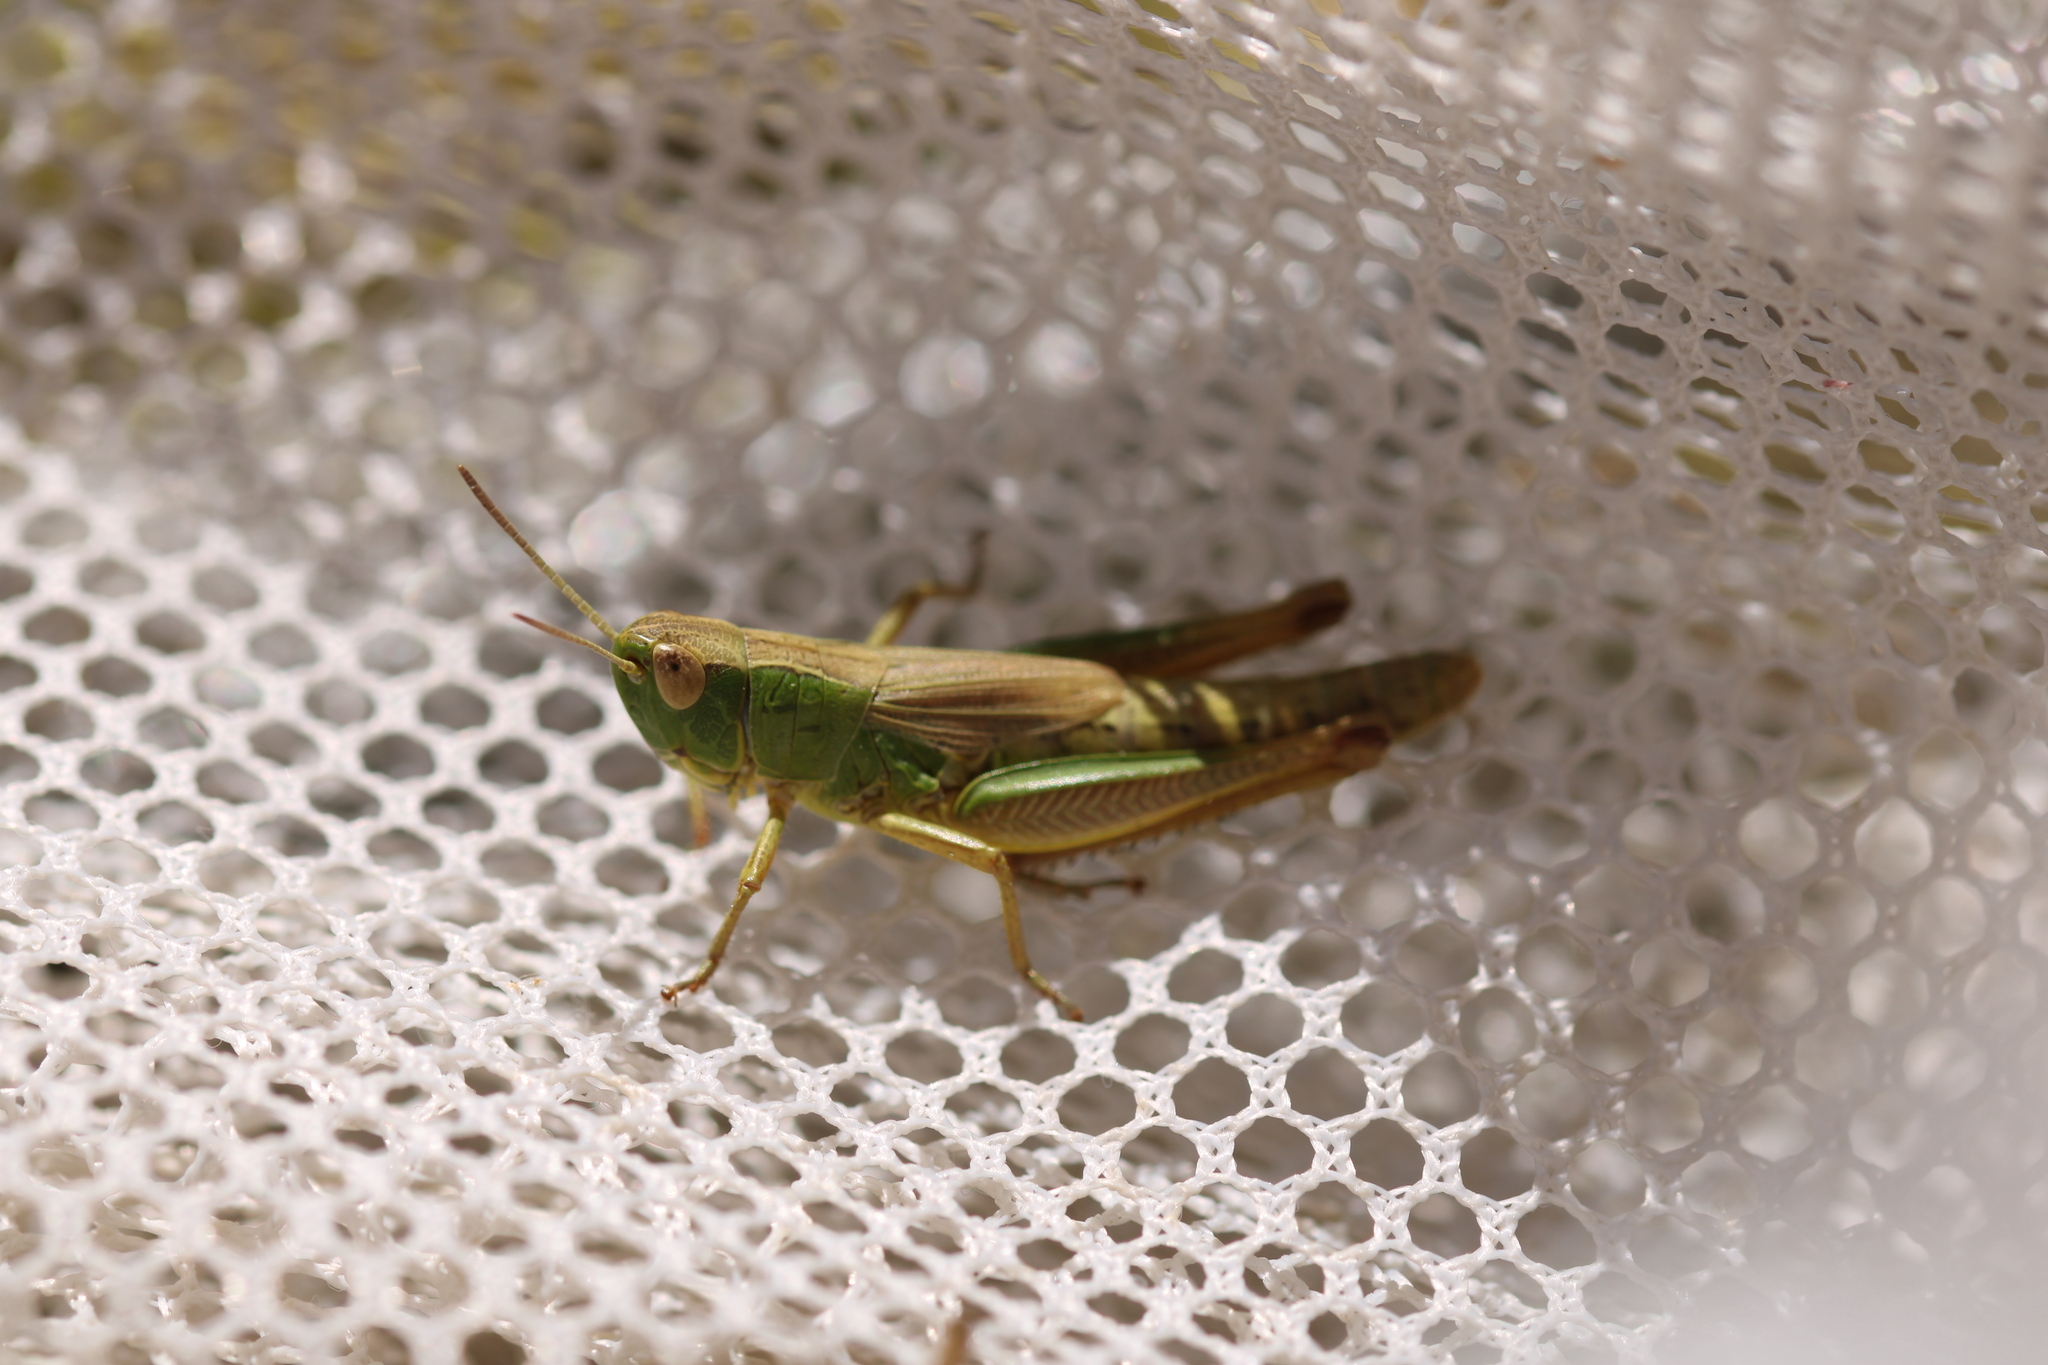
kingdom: Animalia
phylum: Arthropoda
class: Insecta
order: Orthoptera
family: Acrididae
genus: Pseudochorthippus
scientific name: Pseudochorthippus parallelus
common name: Meadow grasshopper
